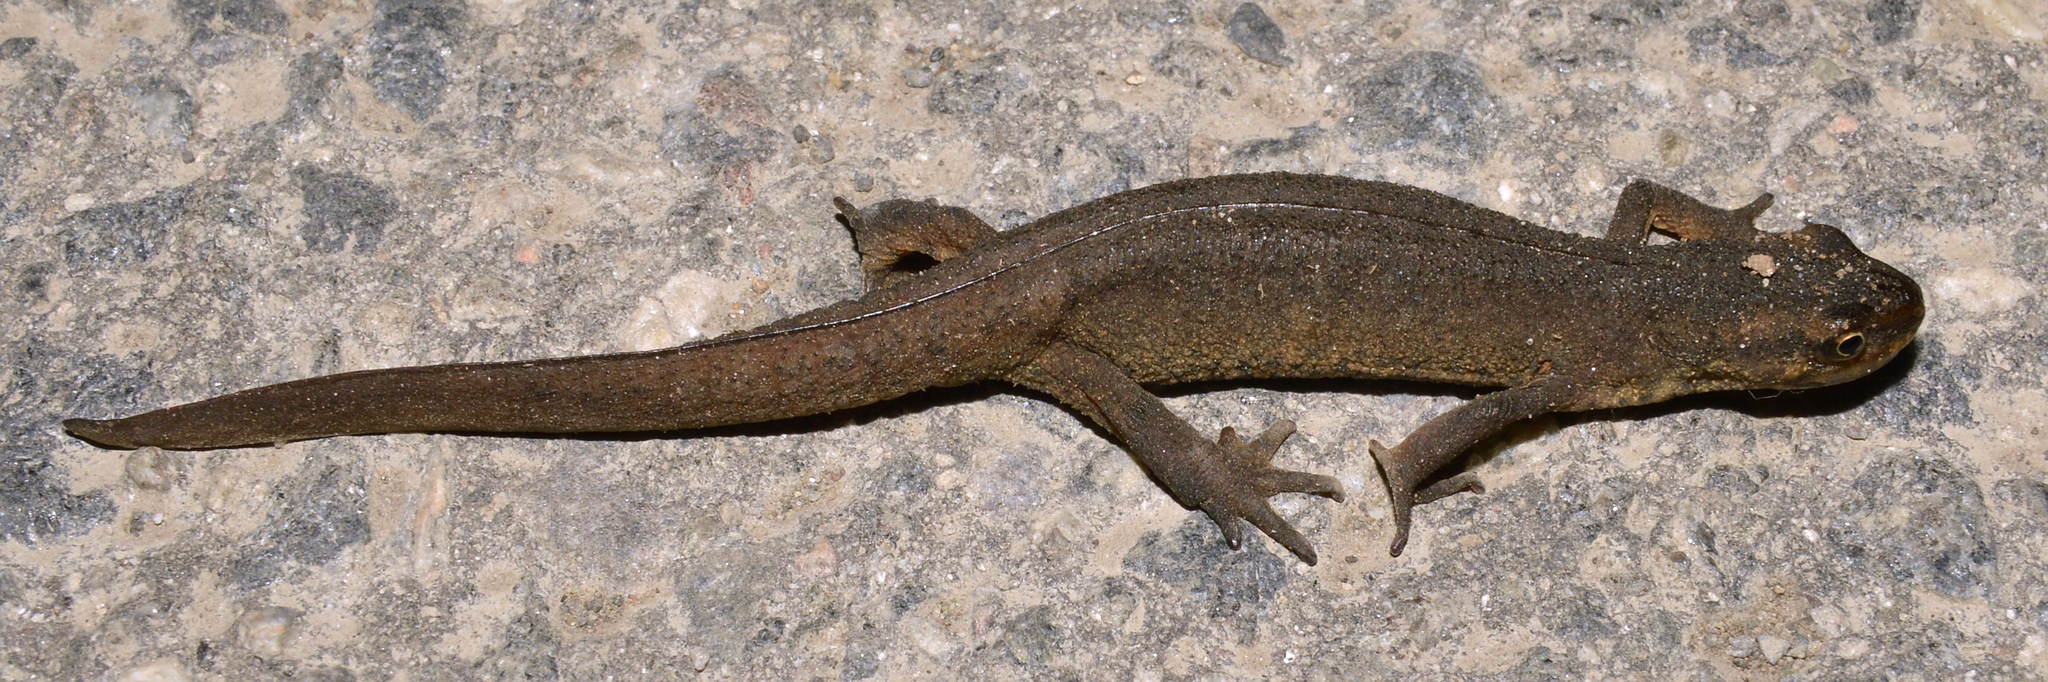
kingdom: Animalia
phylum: Chordata
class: Amphibia
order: Caudata
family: Salamandridae
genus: Lissotriton
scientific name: Lissotriton vulgaris
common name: Smooth newt
